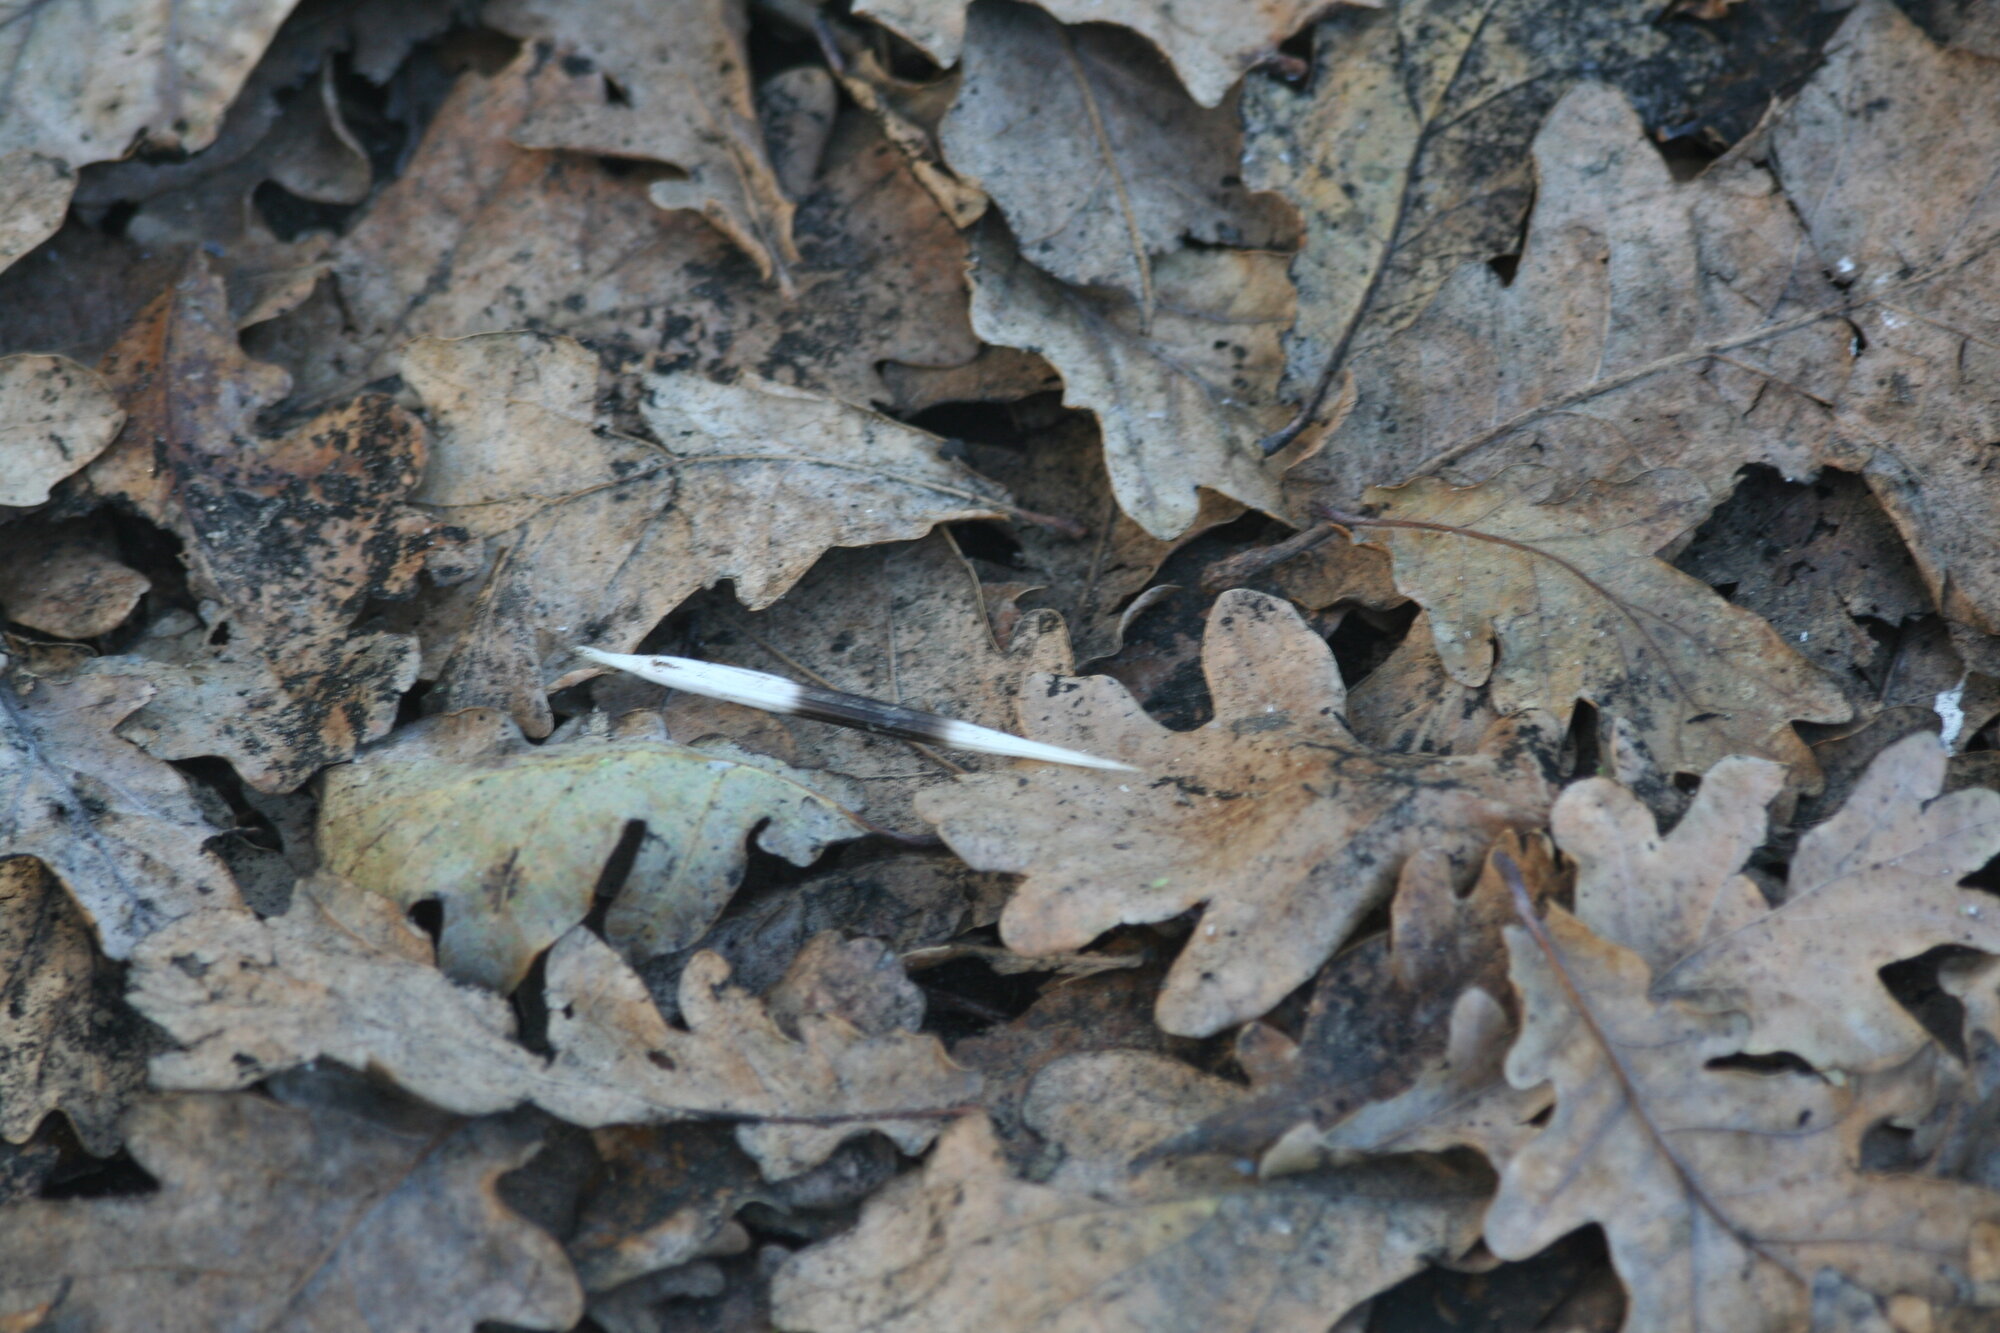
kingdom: Animalia
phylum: Chordata
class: Mammalia
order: Rodentia
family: Hystricidae
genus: Hystrix
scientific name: Hystrix africaeaustralis
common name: Cape porcupine
